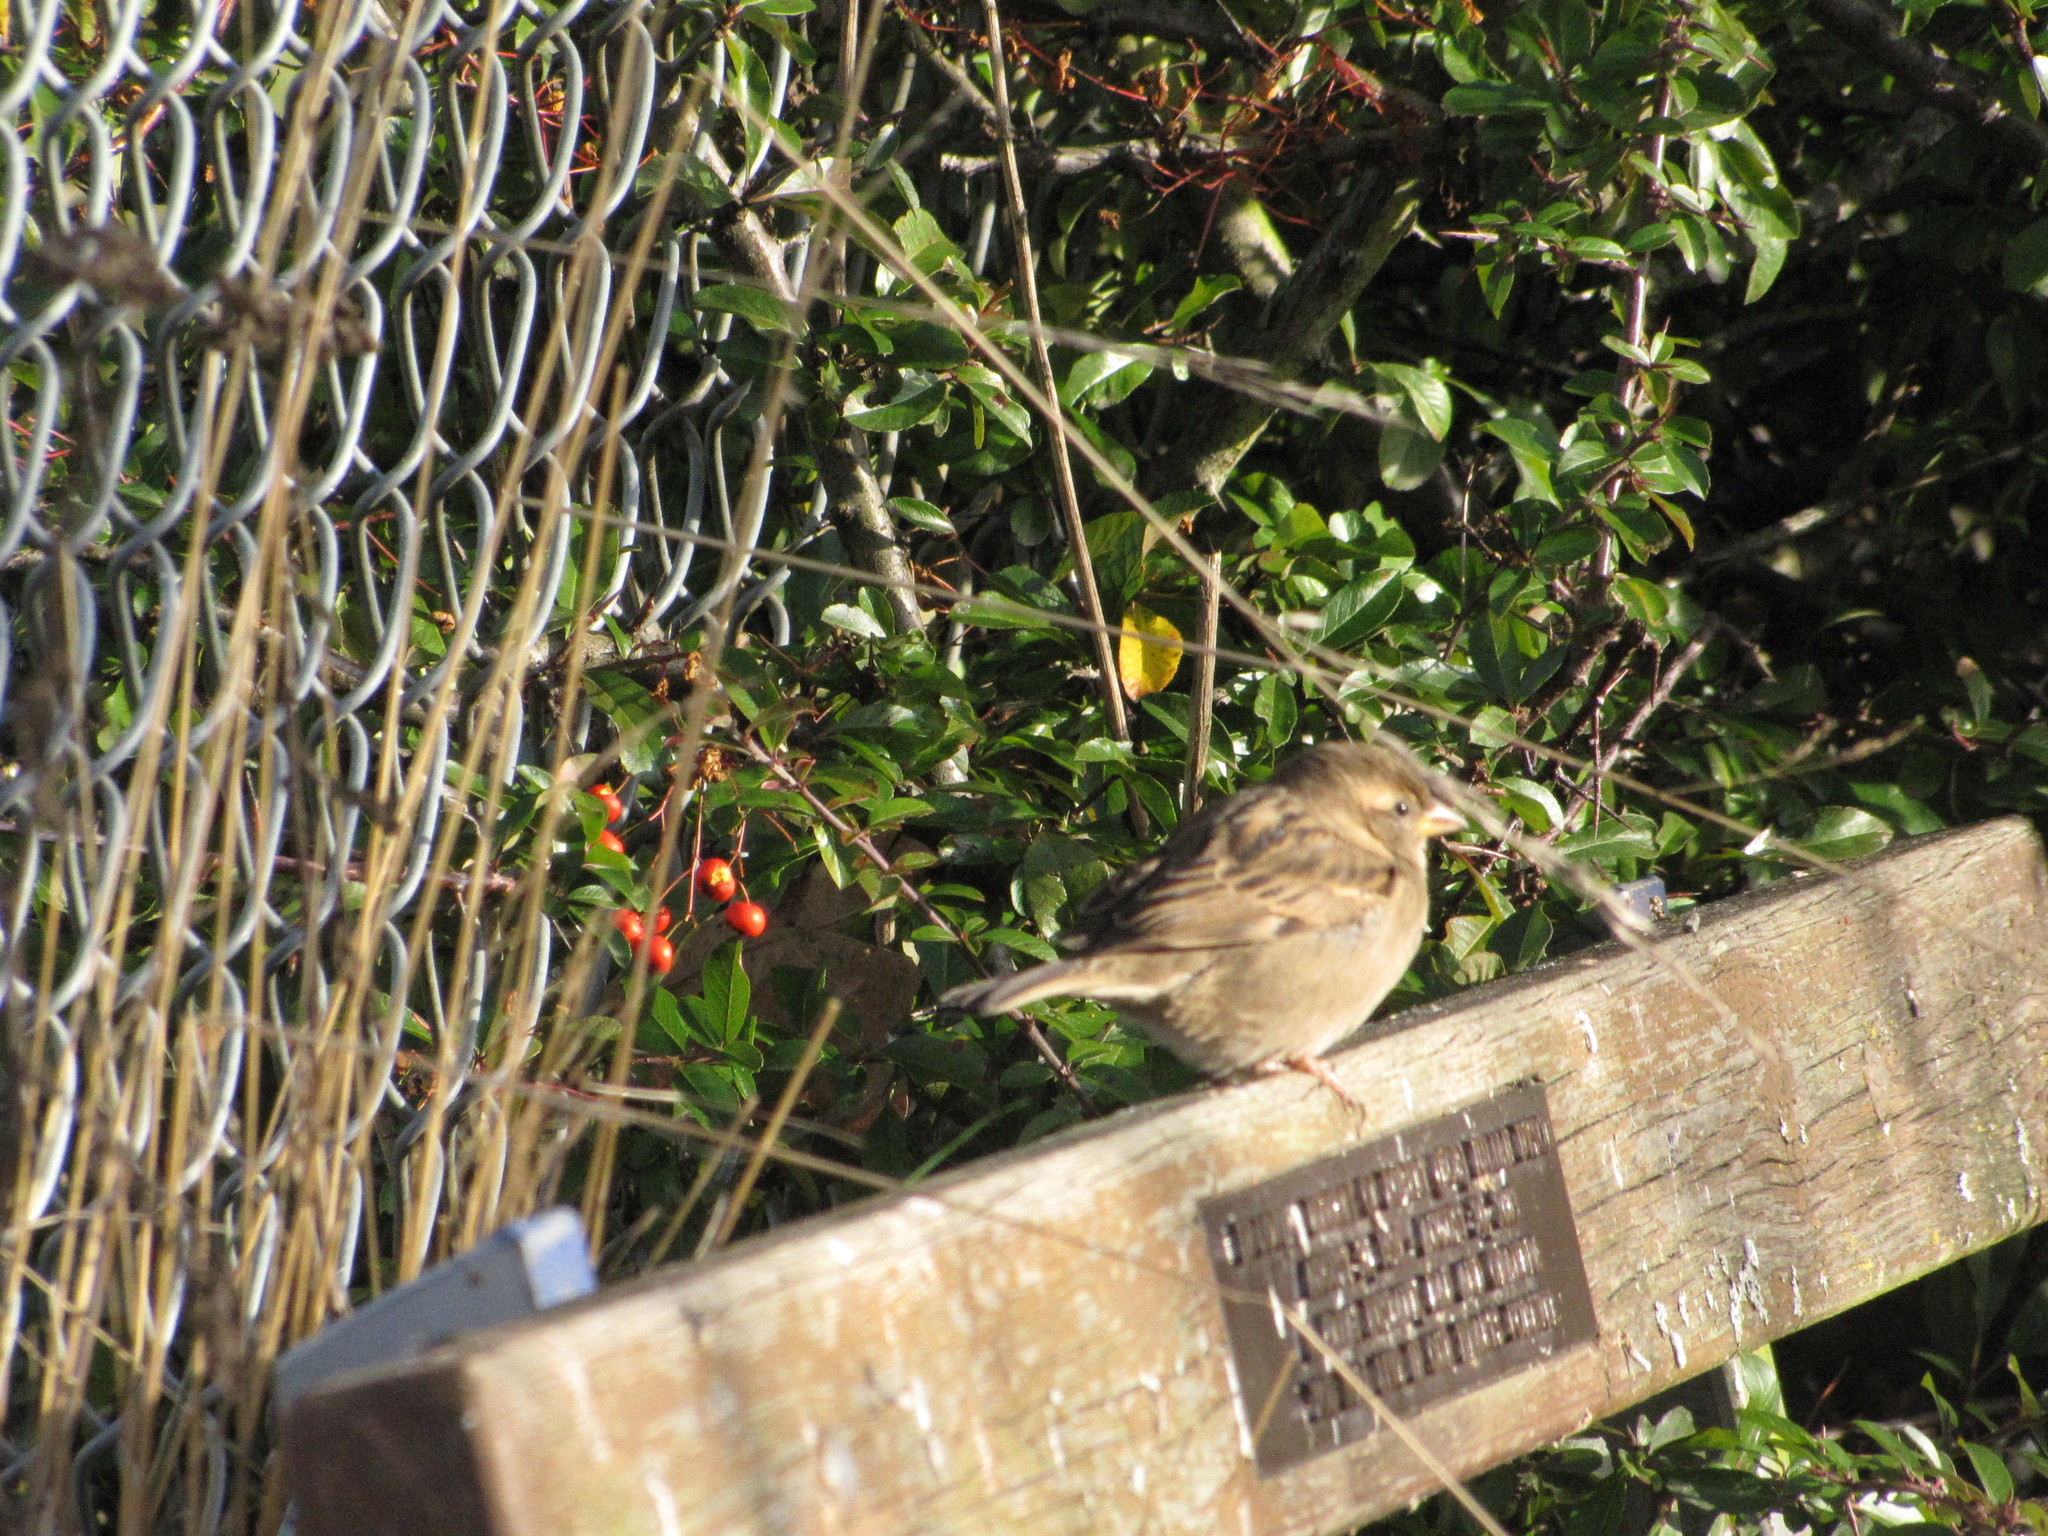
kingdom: Animalia
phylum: Chordata
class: Aves
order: Passeriformes
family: Passeridae
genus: Passer
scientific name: Passer domesticus
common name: House sparrow
